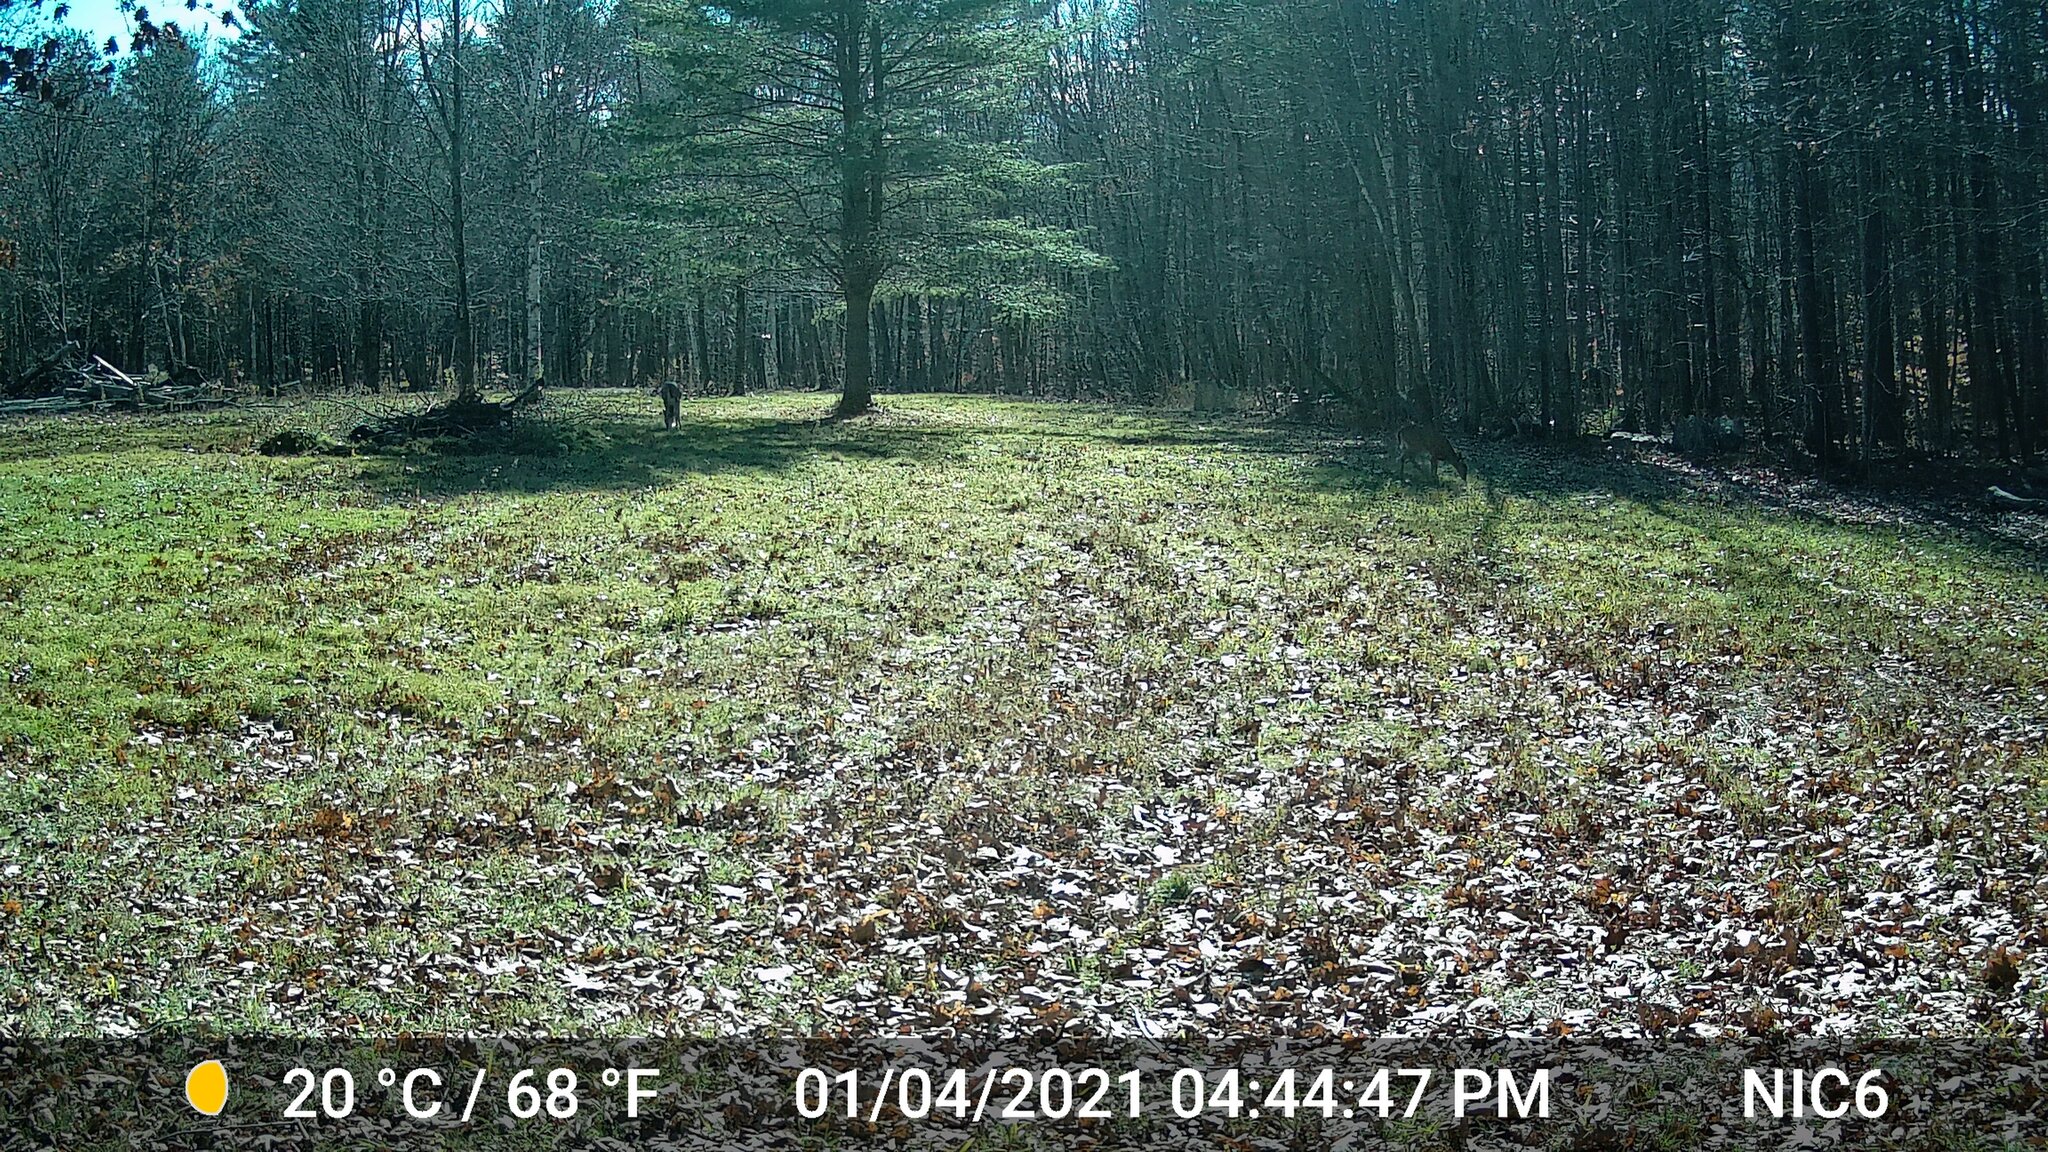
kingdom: Animalia
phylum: Chordata
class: Mammalia
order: Artiodactyla
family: Cervidae
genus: Odocoileus
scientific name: Odocoileus virginianus
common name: White-tailed deer
